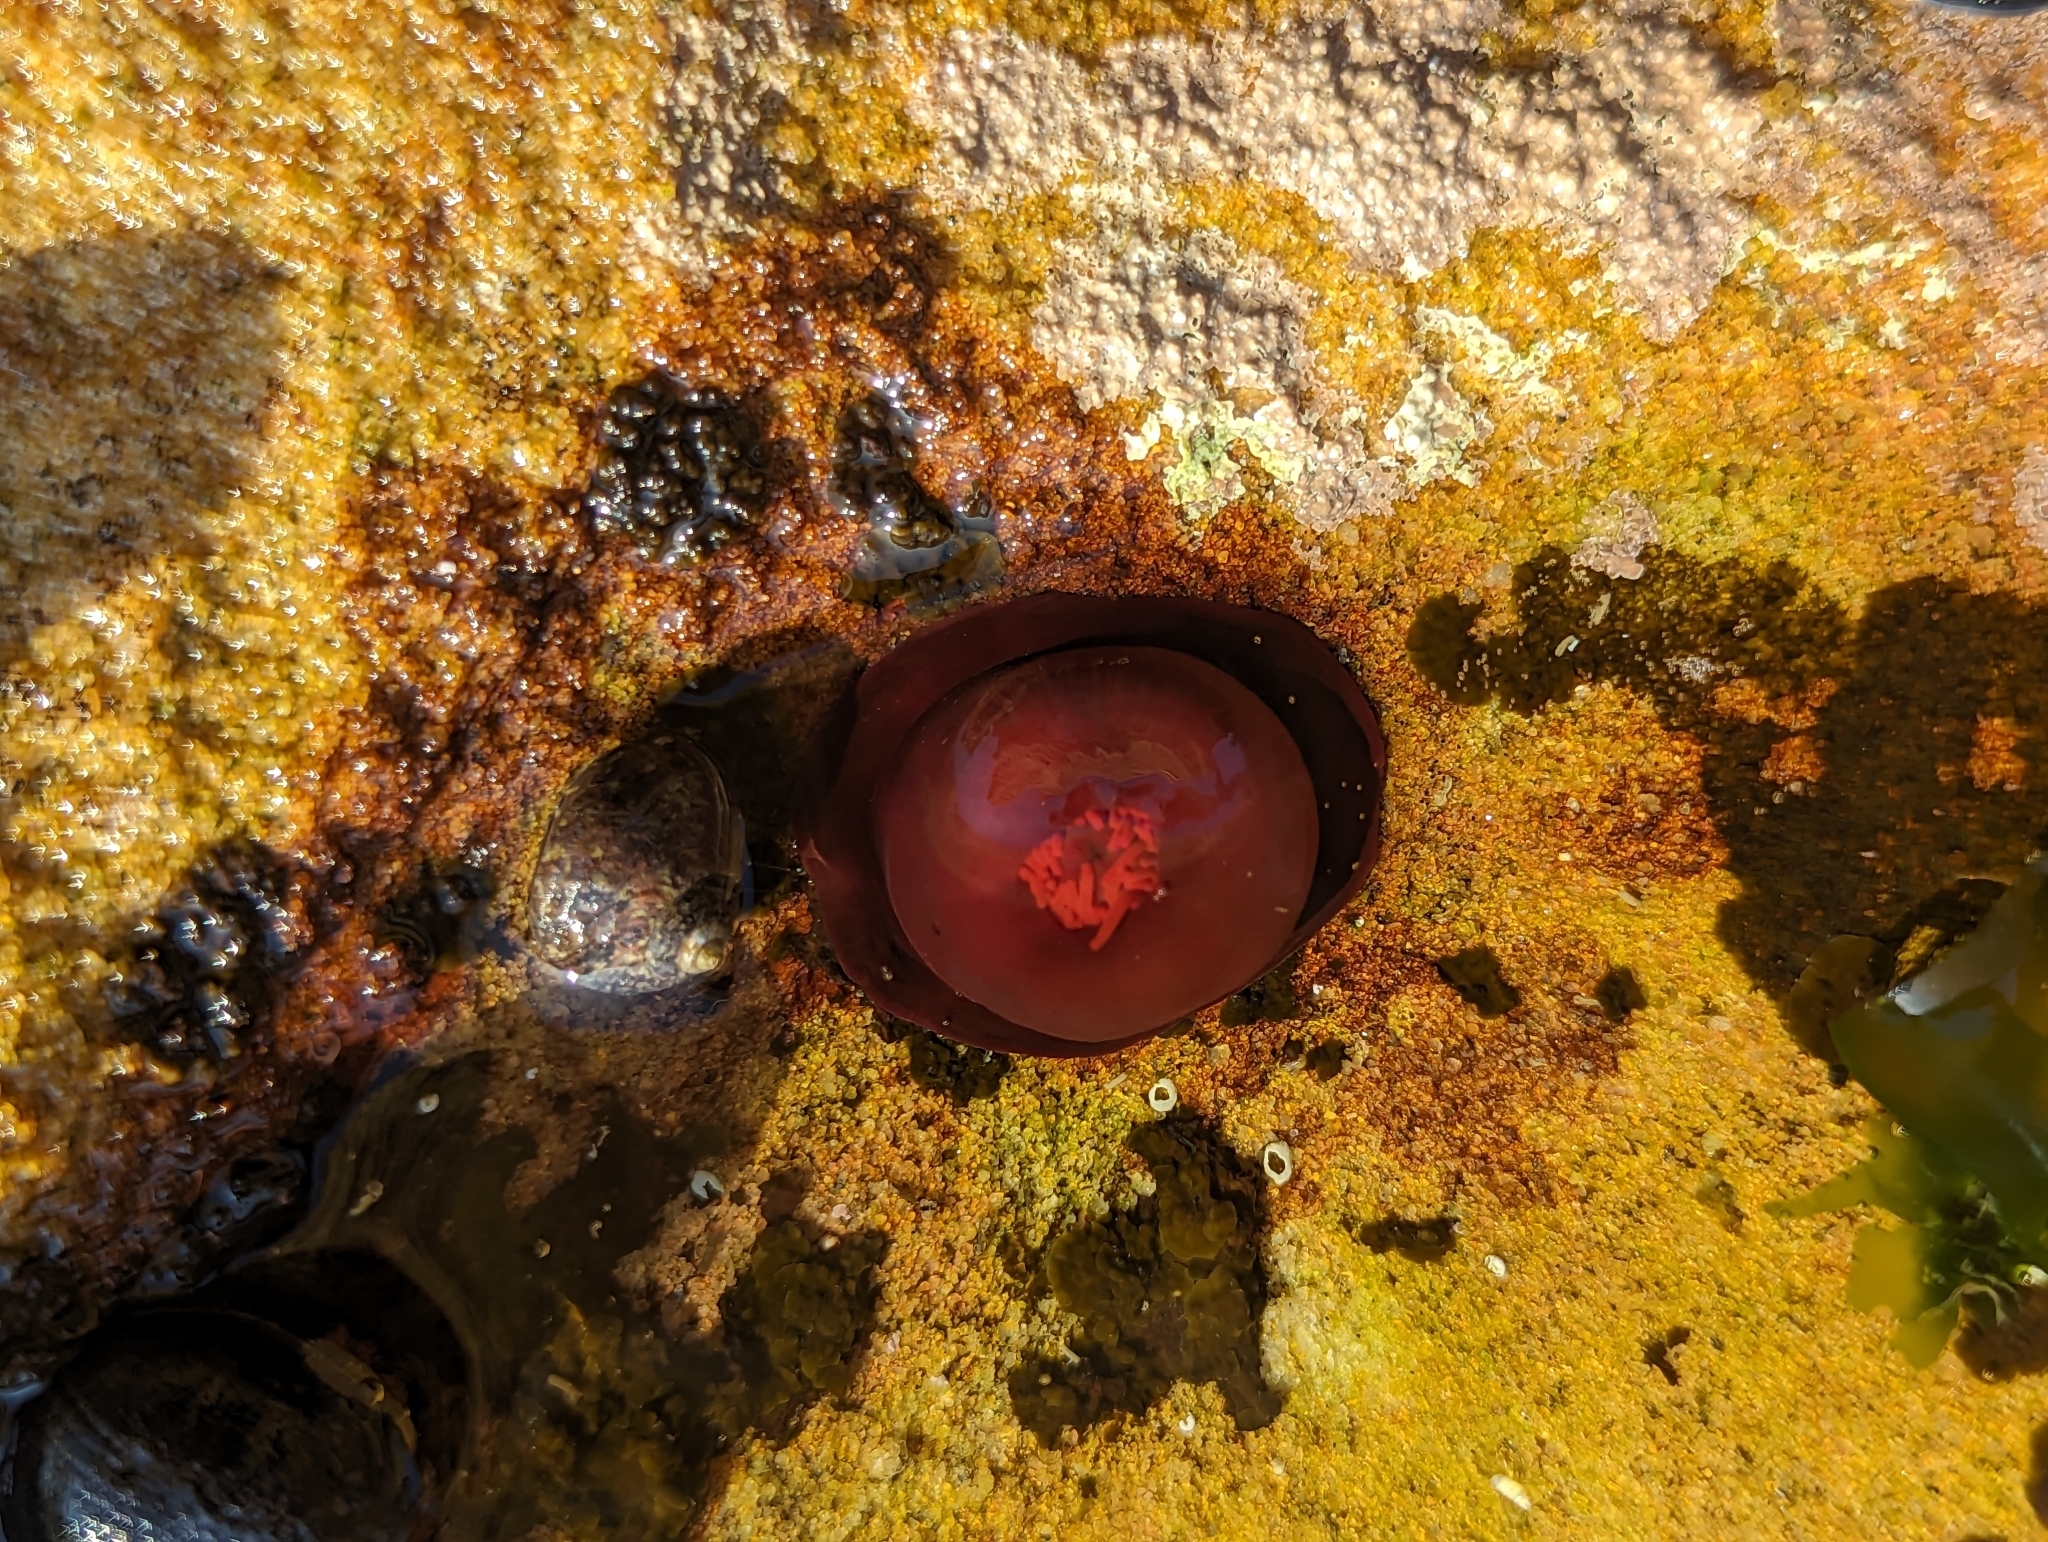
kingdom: Animalia
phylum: Cnidaria
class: Anthozoa
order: Actiniaria
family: Actiniidae
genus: Actinia
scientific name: Actinia tenebrosa
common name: Waratah anemone
